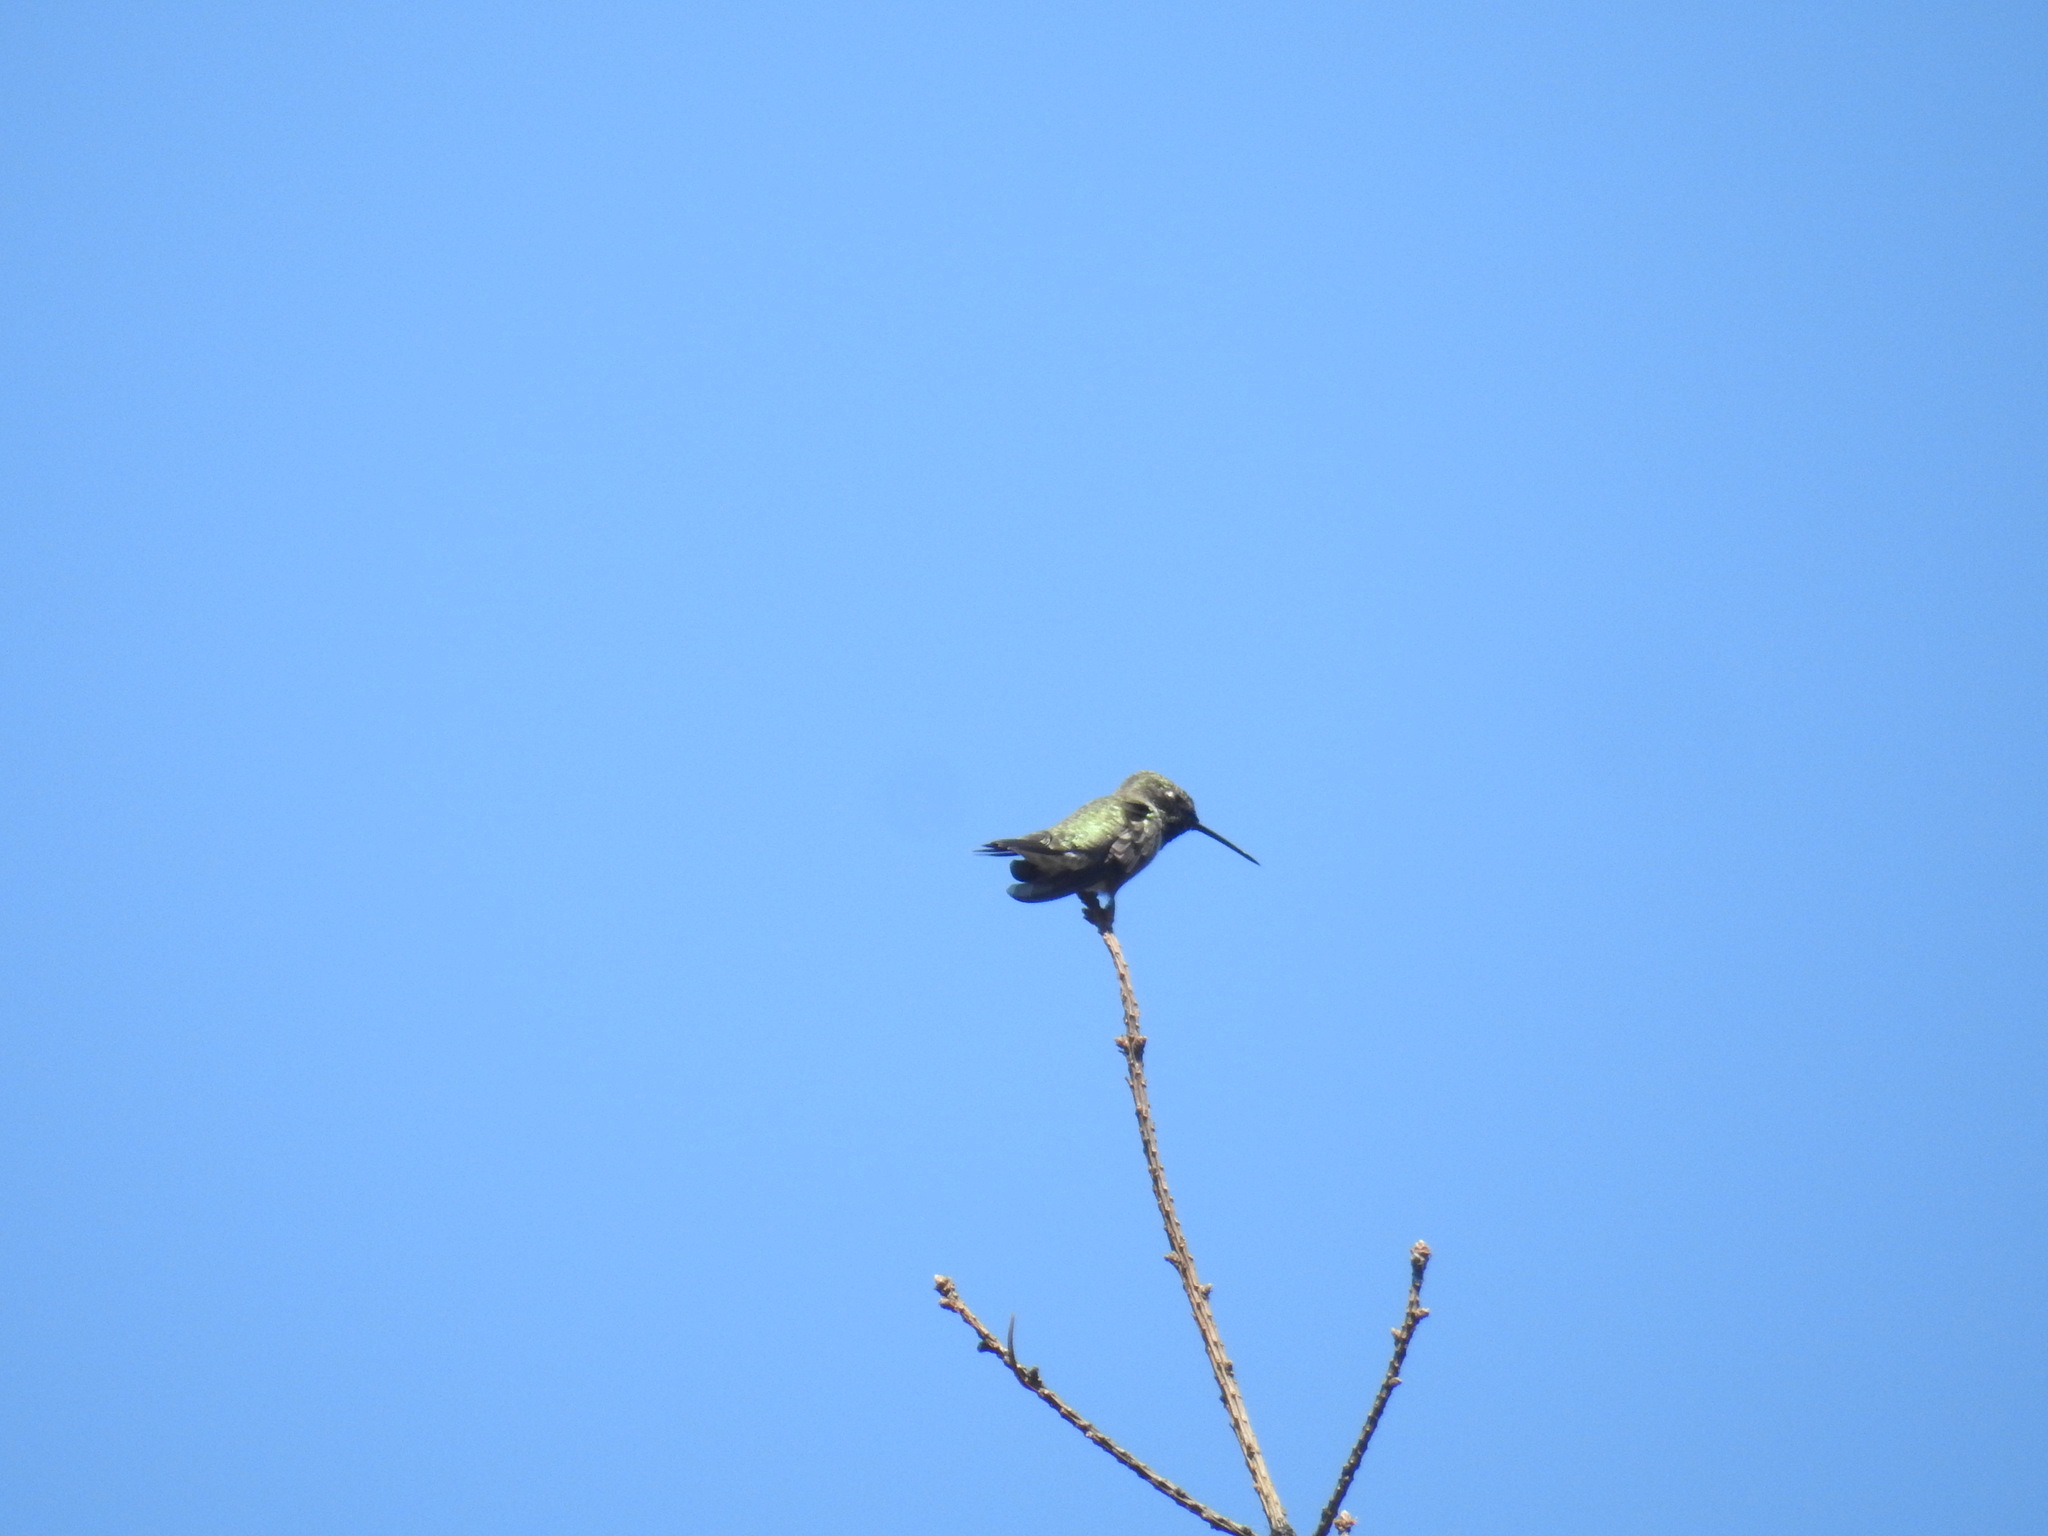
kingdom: Animalia
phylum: Chordata
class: Aves
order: Apodiformes
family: Trochilidae
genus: Archilochus
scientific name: Archilochus alexandri
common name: Black-chinned hummingbird
